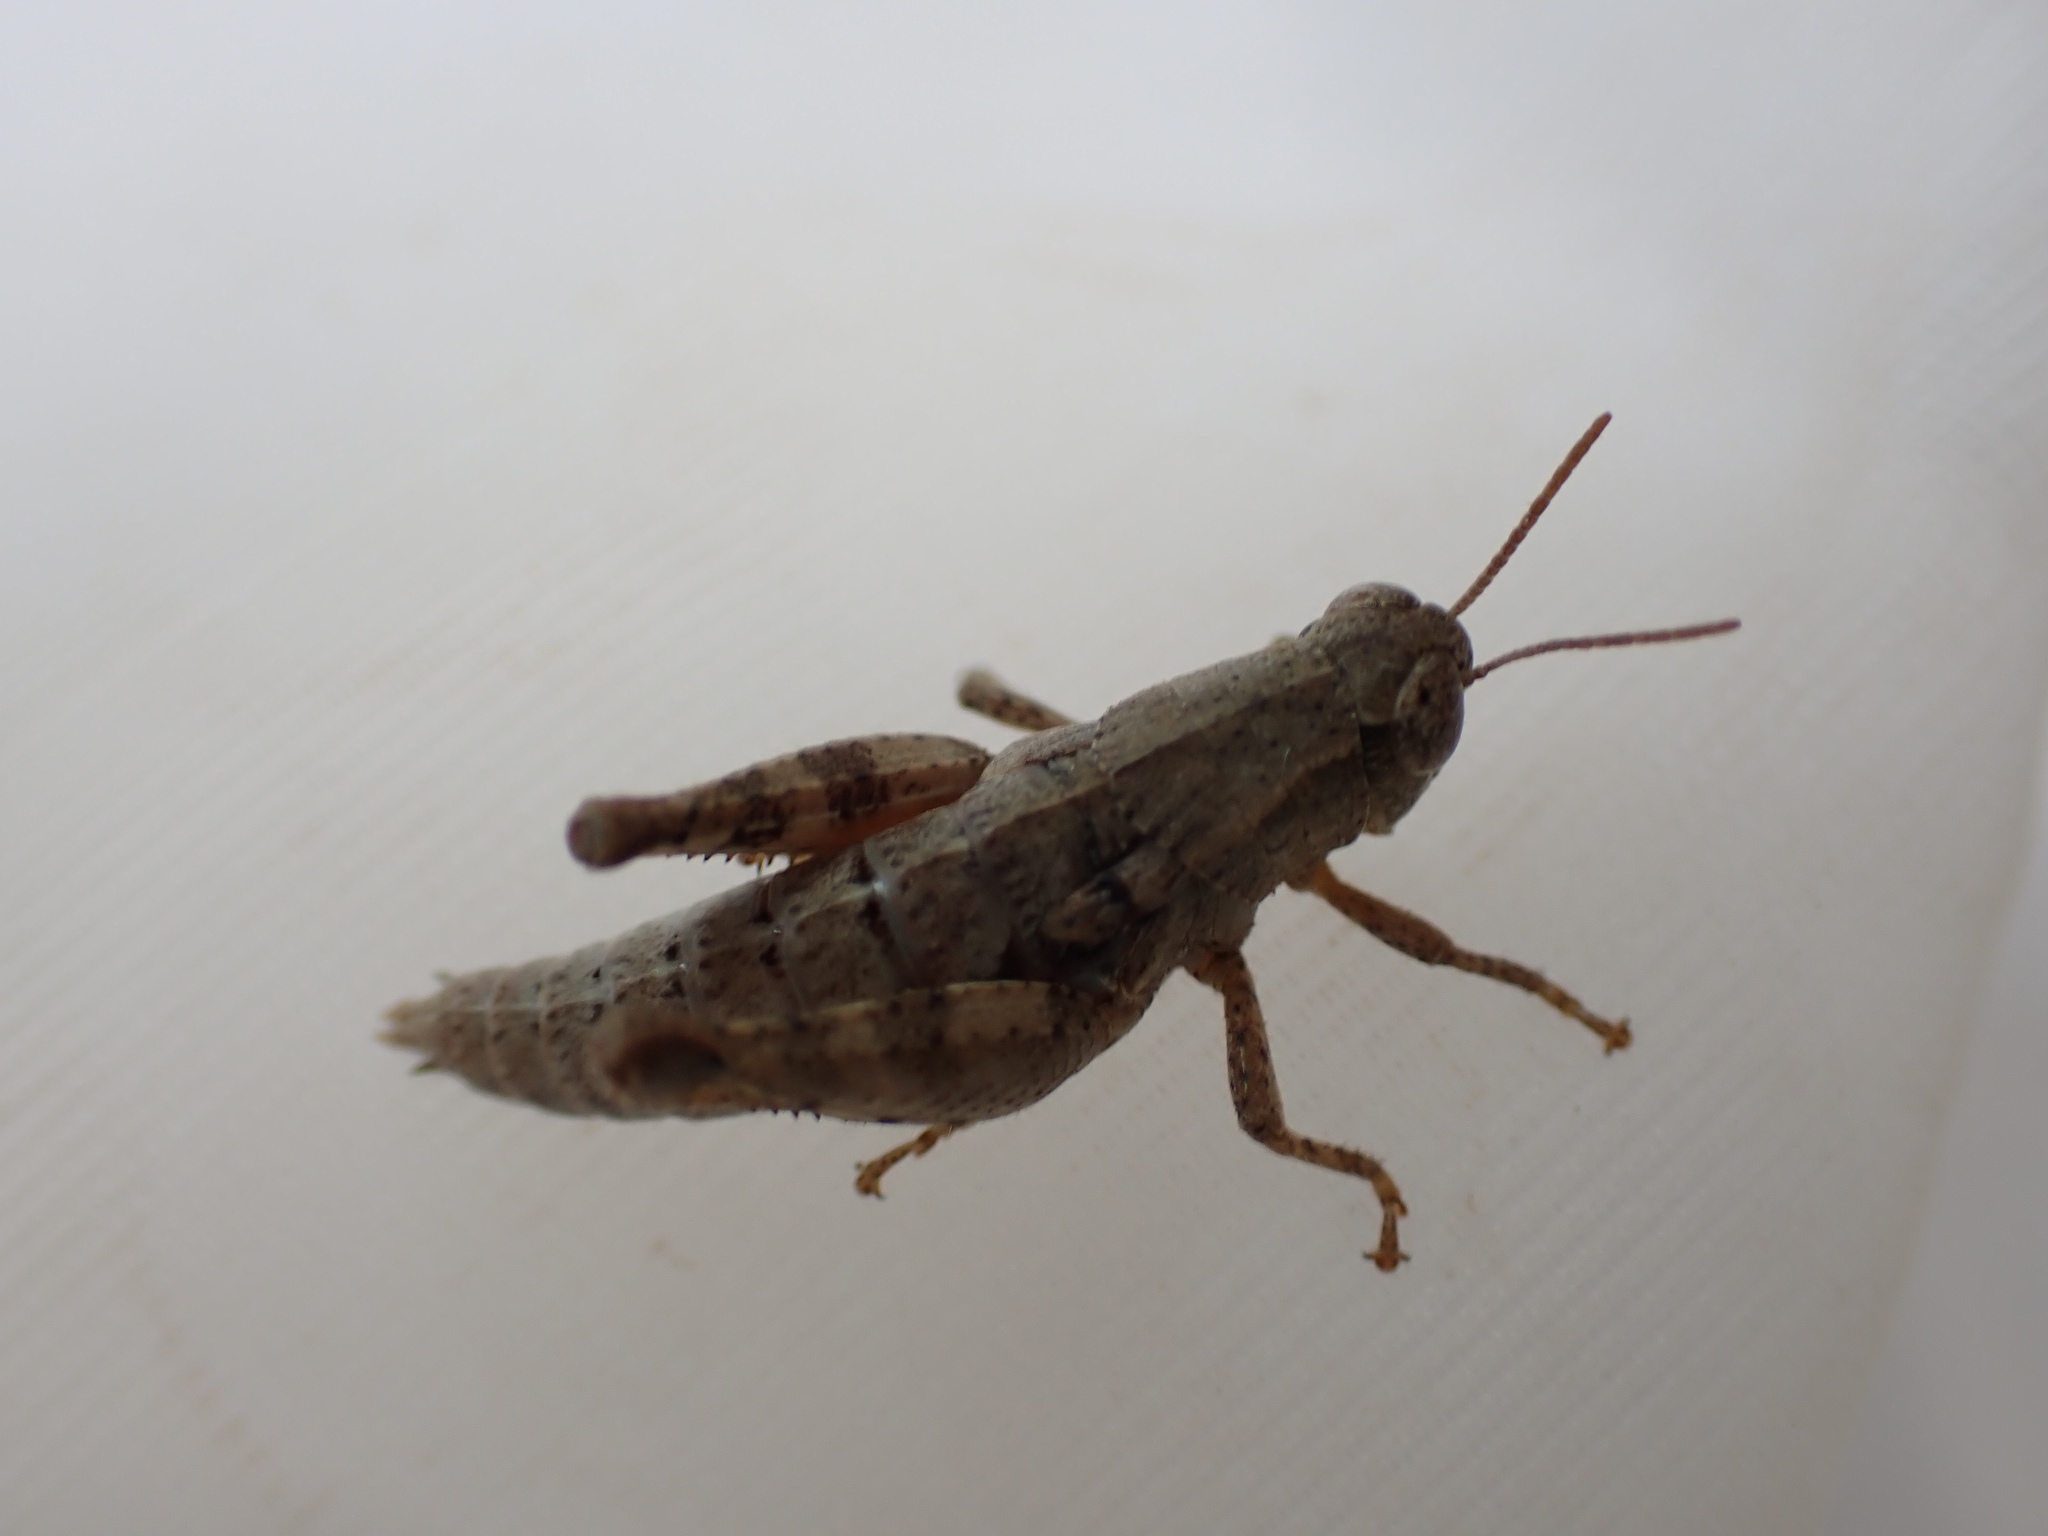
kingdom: Animalia
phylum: Arthropoda
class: Insecta
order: Orthoptera
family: Acrididae
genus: Pezotettix
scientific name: Pezotettix giornae
